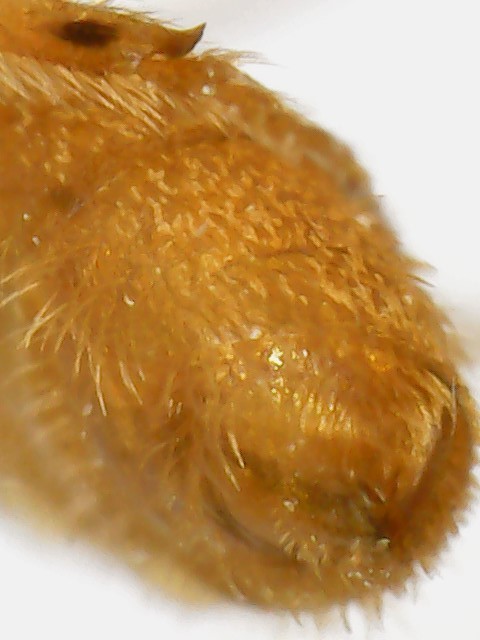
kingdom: Animalia
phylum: Arthropoda
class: Insecta
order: Hymenoptera
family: Halictidae
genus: Lasioglossum
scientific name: Lasioglossum vierecki
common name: Viereck's sweat bee
